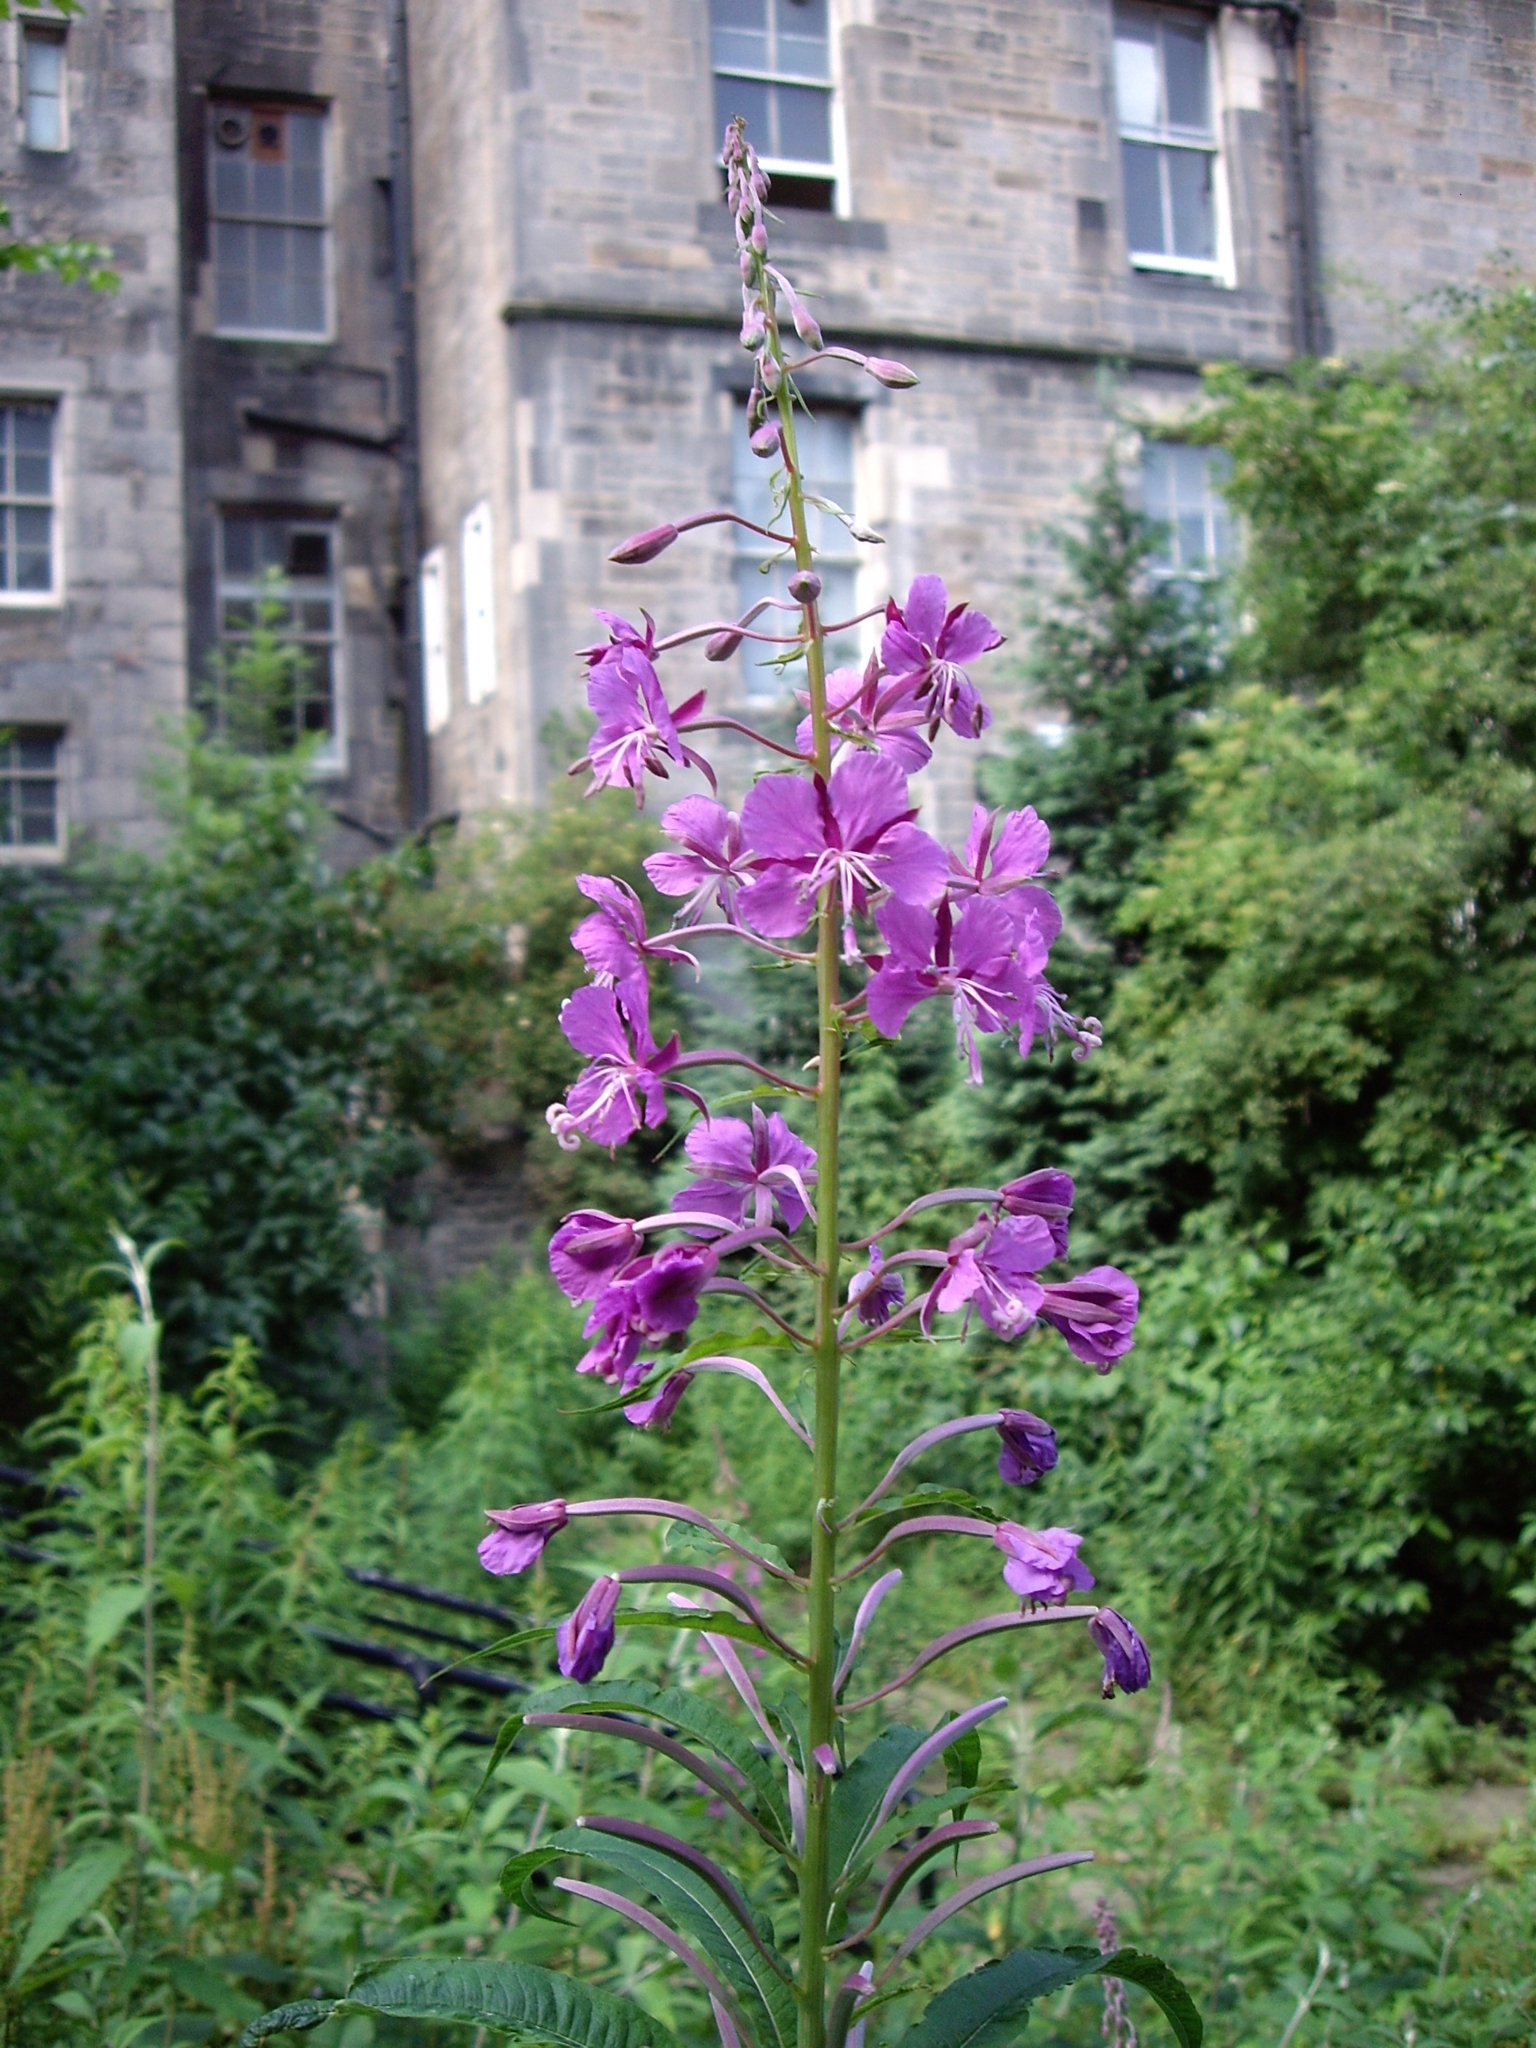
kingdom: Plantae
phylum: Tracheophyta
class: Magnoliopsida
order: Myrtales
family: Onagraceae
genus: Chamaenerion
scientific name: Chamaenerion angustifolium
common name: Fireweed
